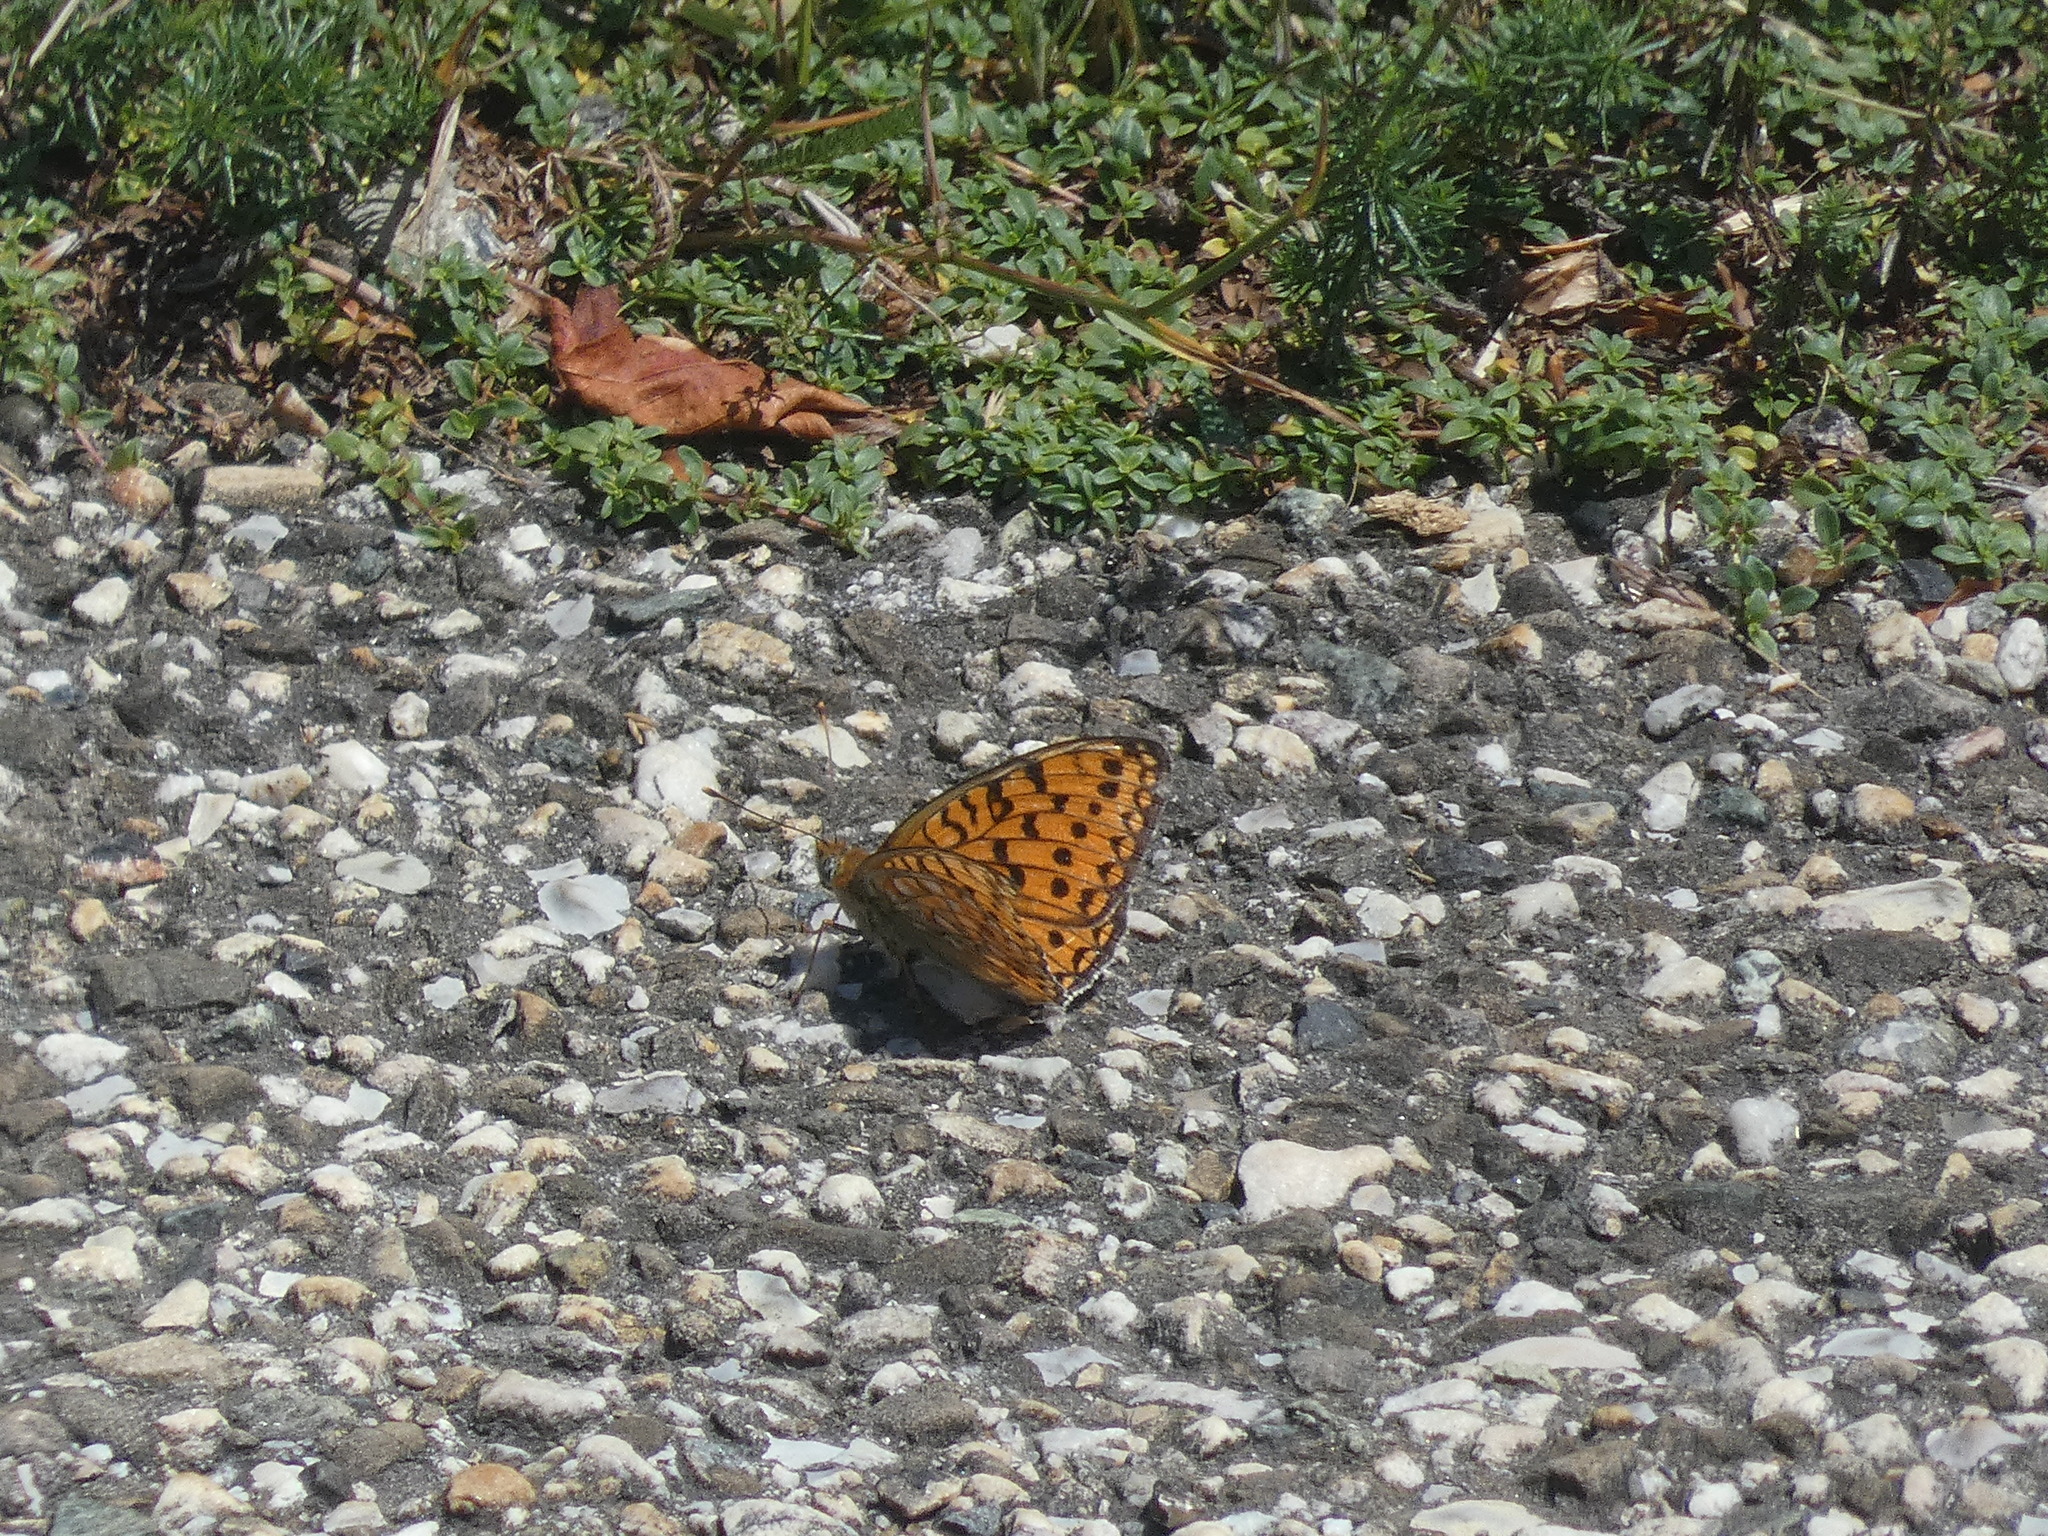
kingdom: Animalia
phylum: Arthropoda
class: Insecta
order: Lepidoptera
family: Nymphalidae
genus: Fabriciana
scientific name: Fabriciana niobe
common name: Niobe fritillary
